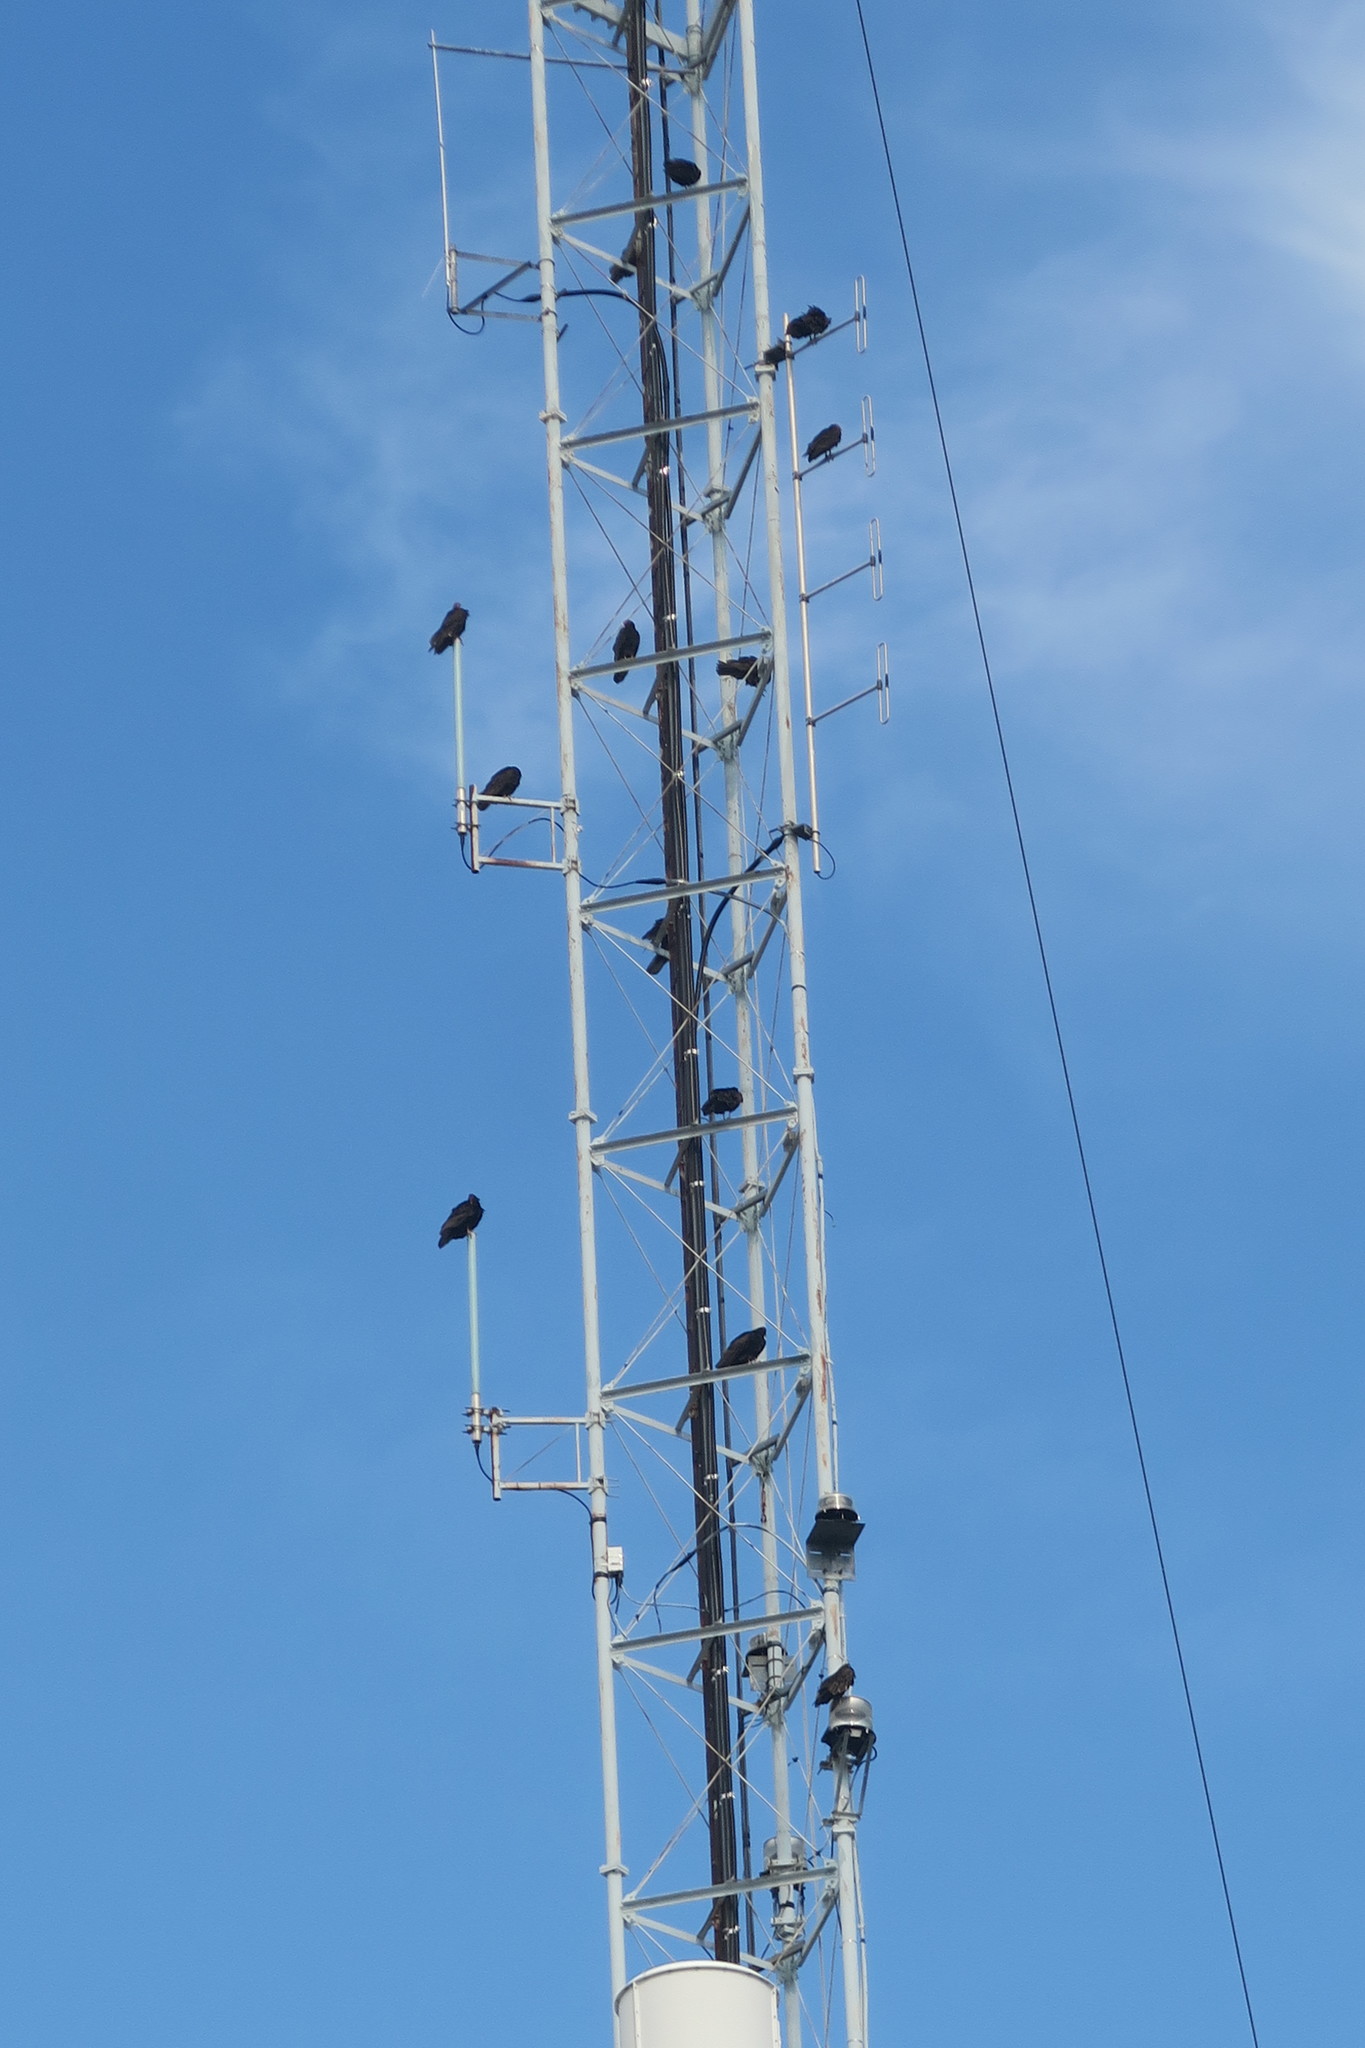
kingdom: Animalia
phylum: Chordata
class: Aves
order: Accipitriformes
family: Cathartidae
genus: Cathartes
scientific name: Cathartes aura
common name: Turkey vulture
